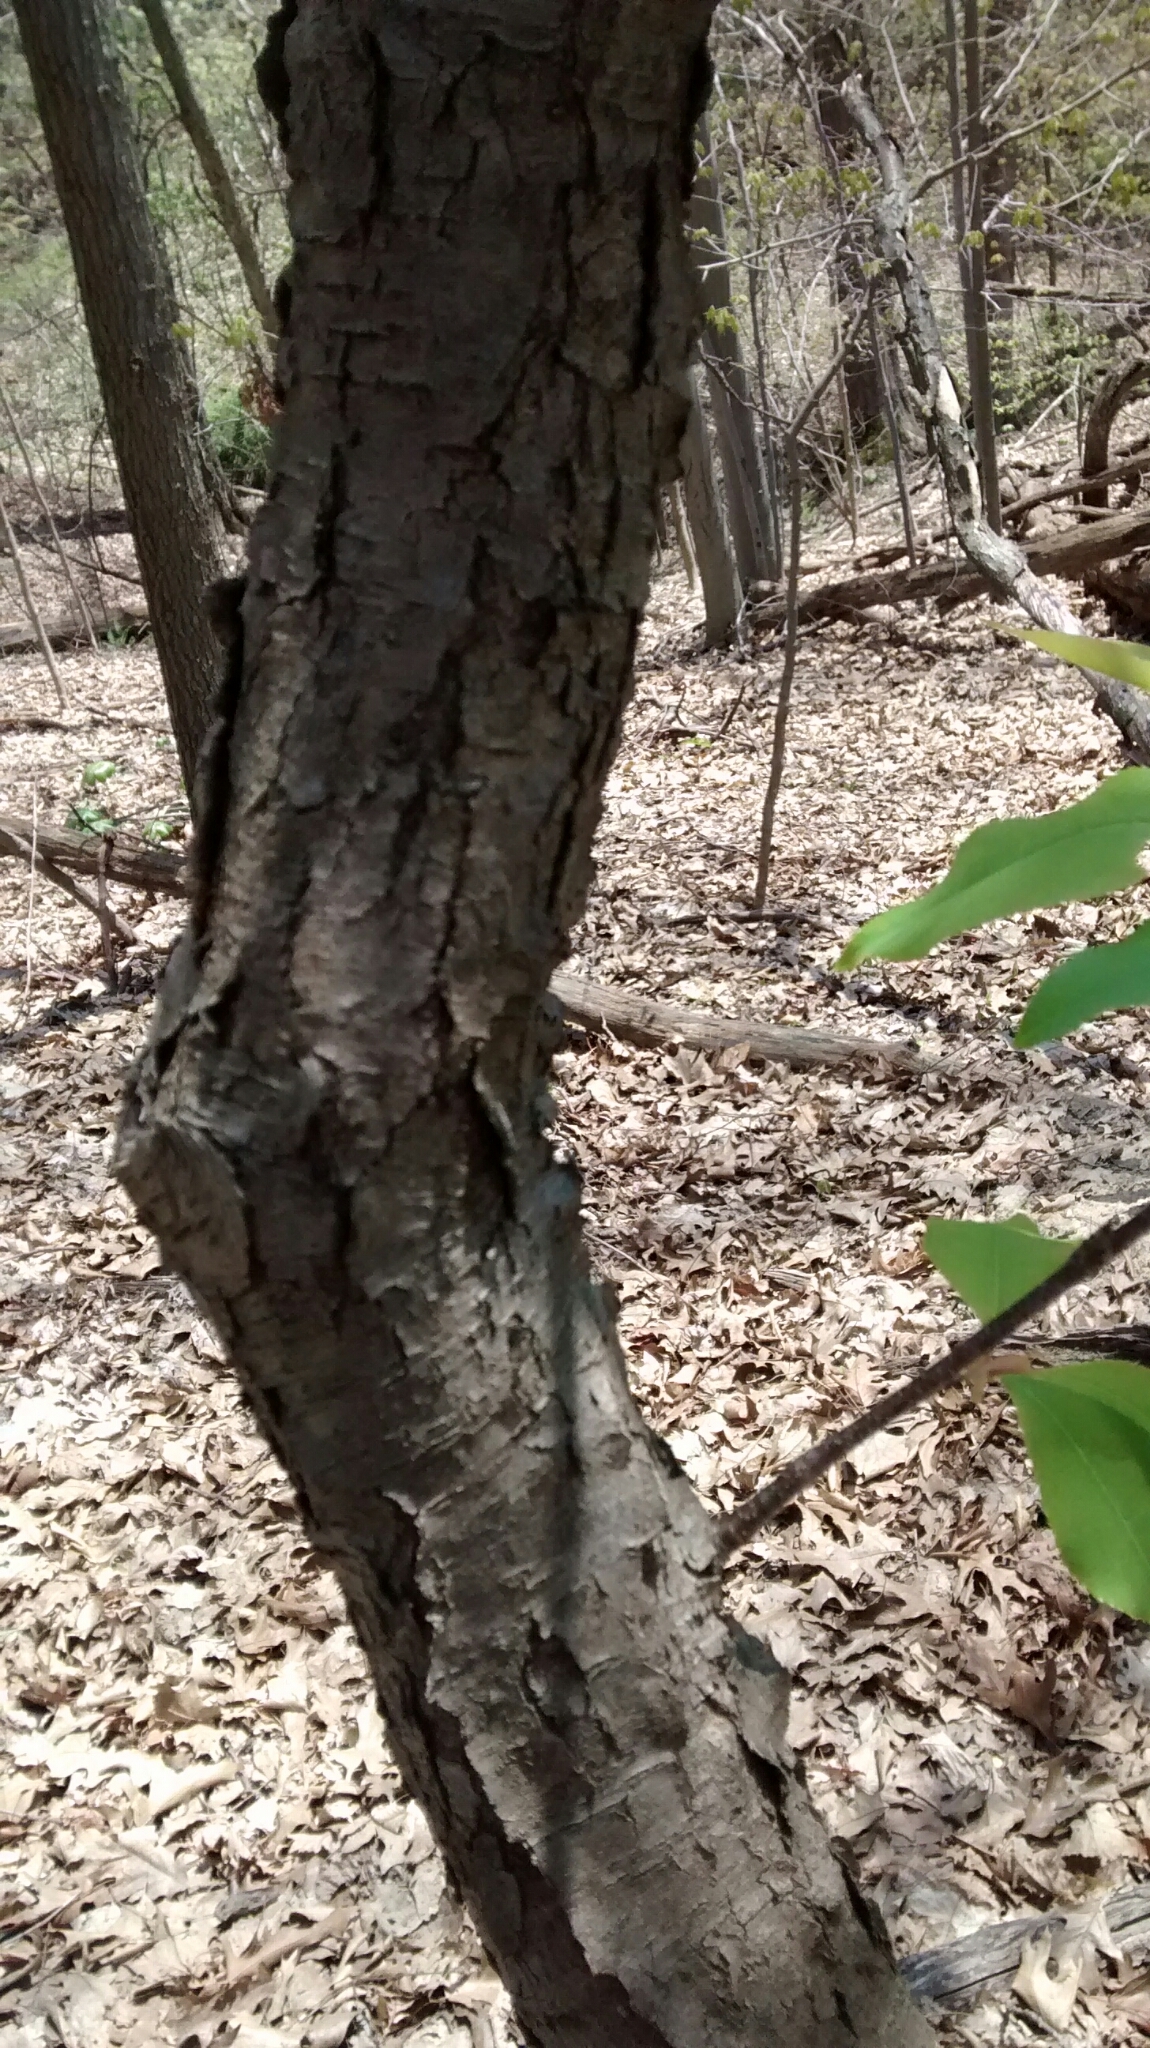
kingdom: Plantae
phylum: Tracheophyta
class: Magnoliopsida
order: Rosales
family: Rosaceae
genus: Prunus
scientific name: Prunus serotina
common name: Black cherry
